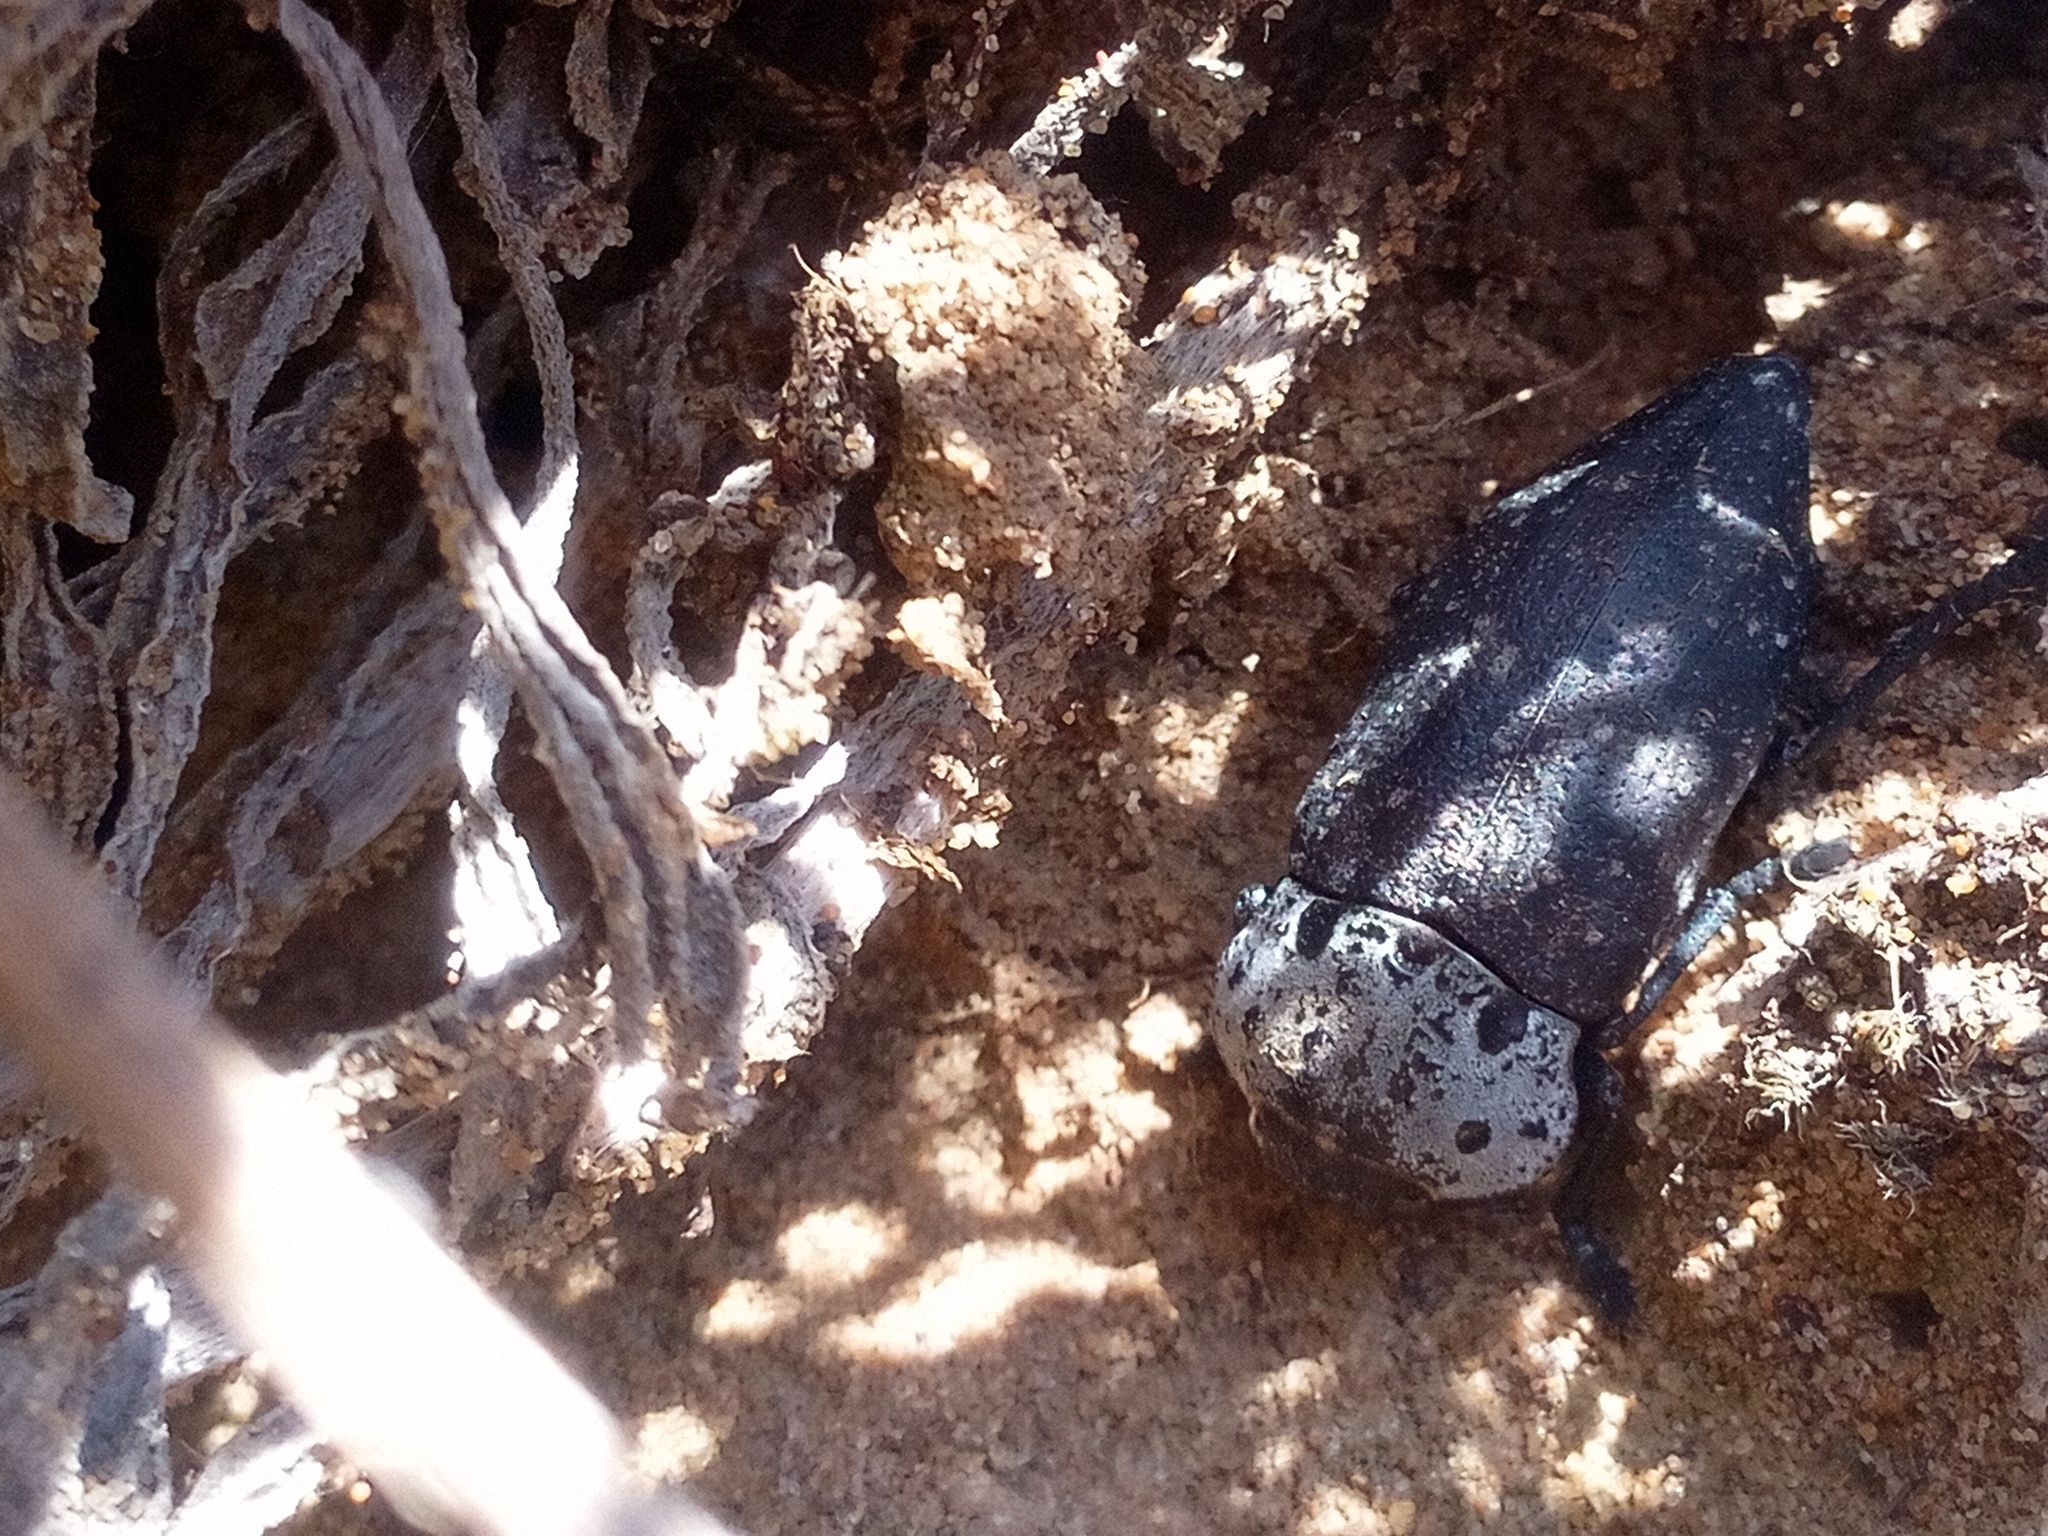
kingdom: Animalia
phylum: Arthropoda
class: Insecta
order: Coleoptera
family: Buprestidae
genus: Capnodis
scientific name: Capnodis tenebrionis
